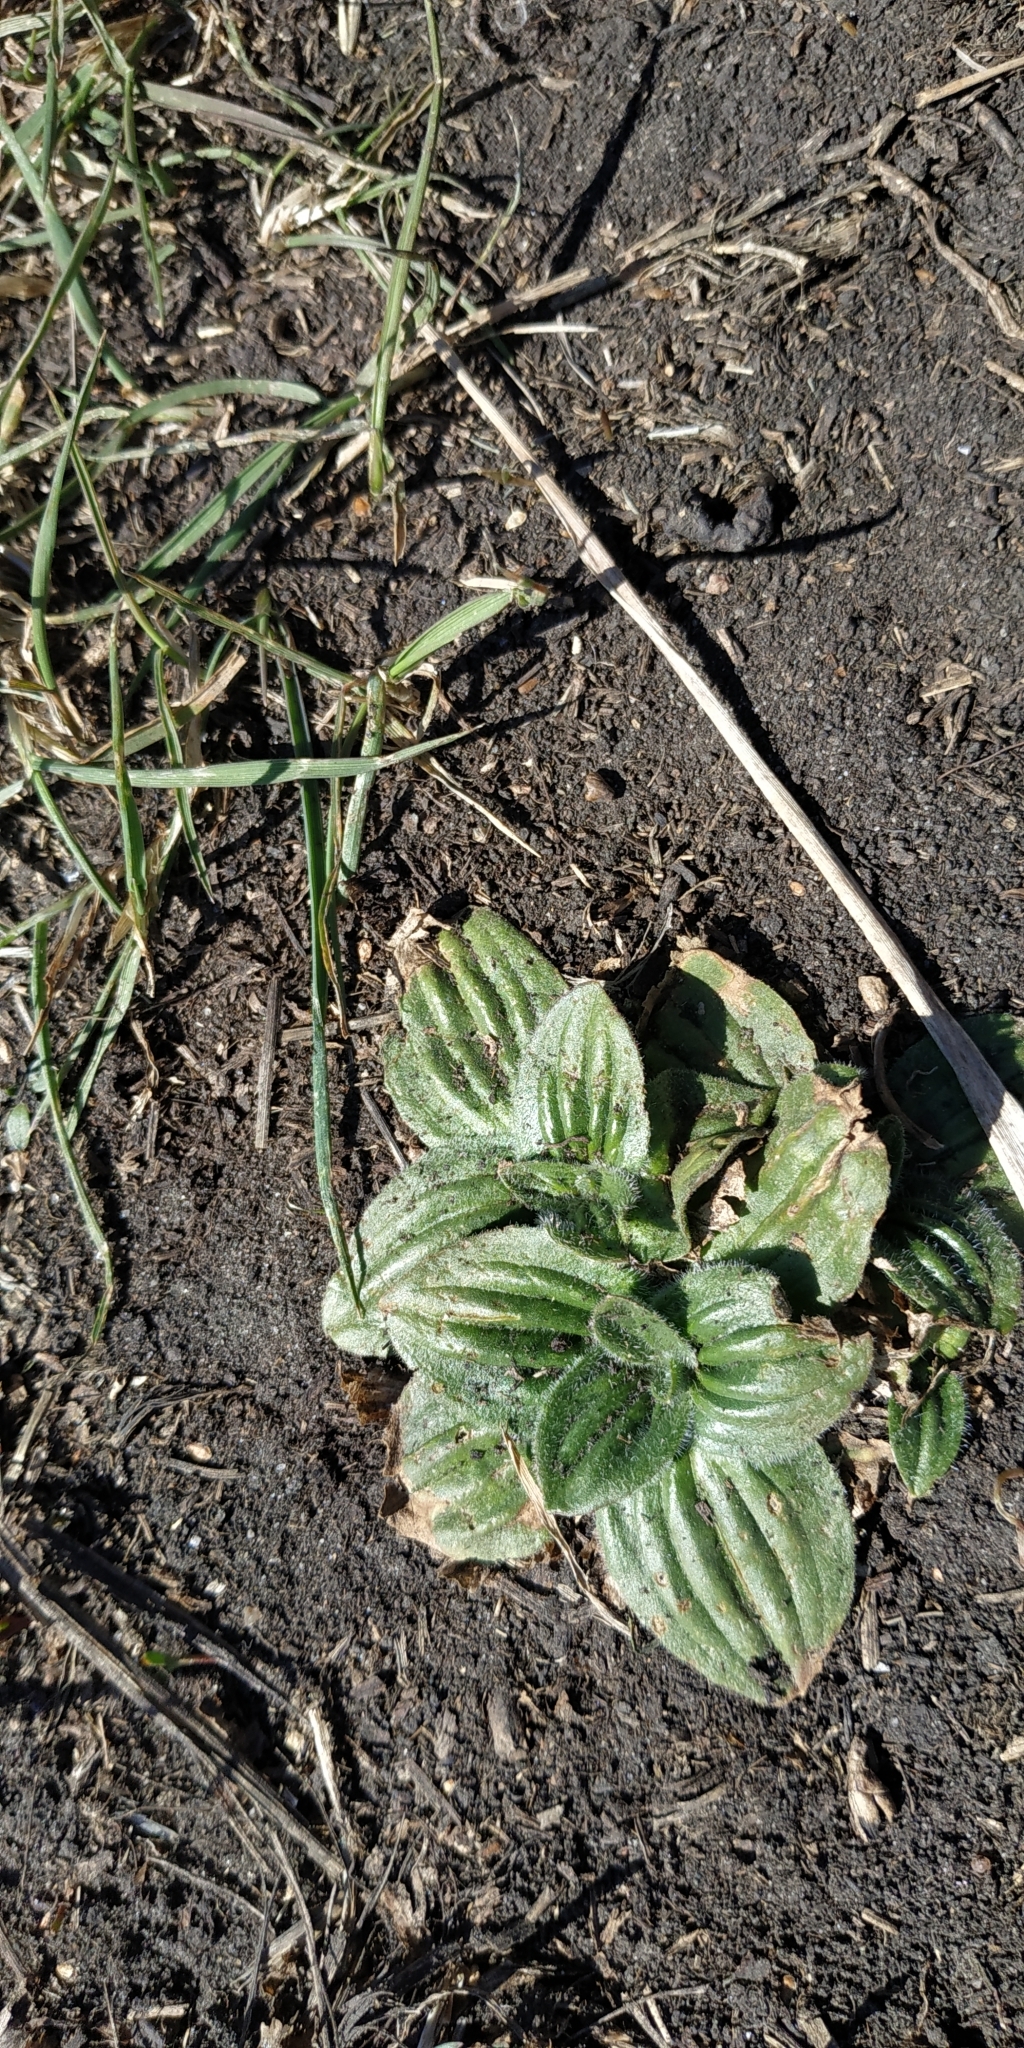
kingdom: Plantae
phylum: Tracheophyta
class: Magnoliopsida
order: Lamiales
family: Plantaginaceae
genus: Plantago
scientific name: Plantago media
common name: Hoary plantain
